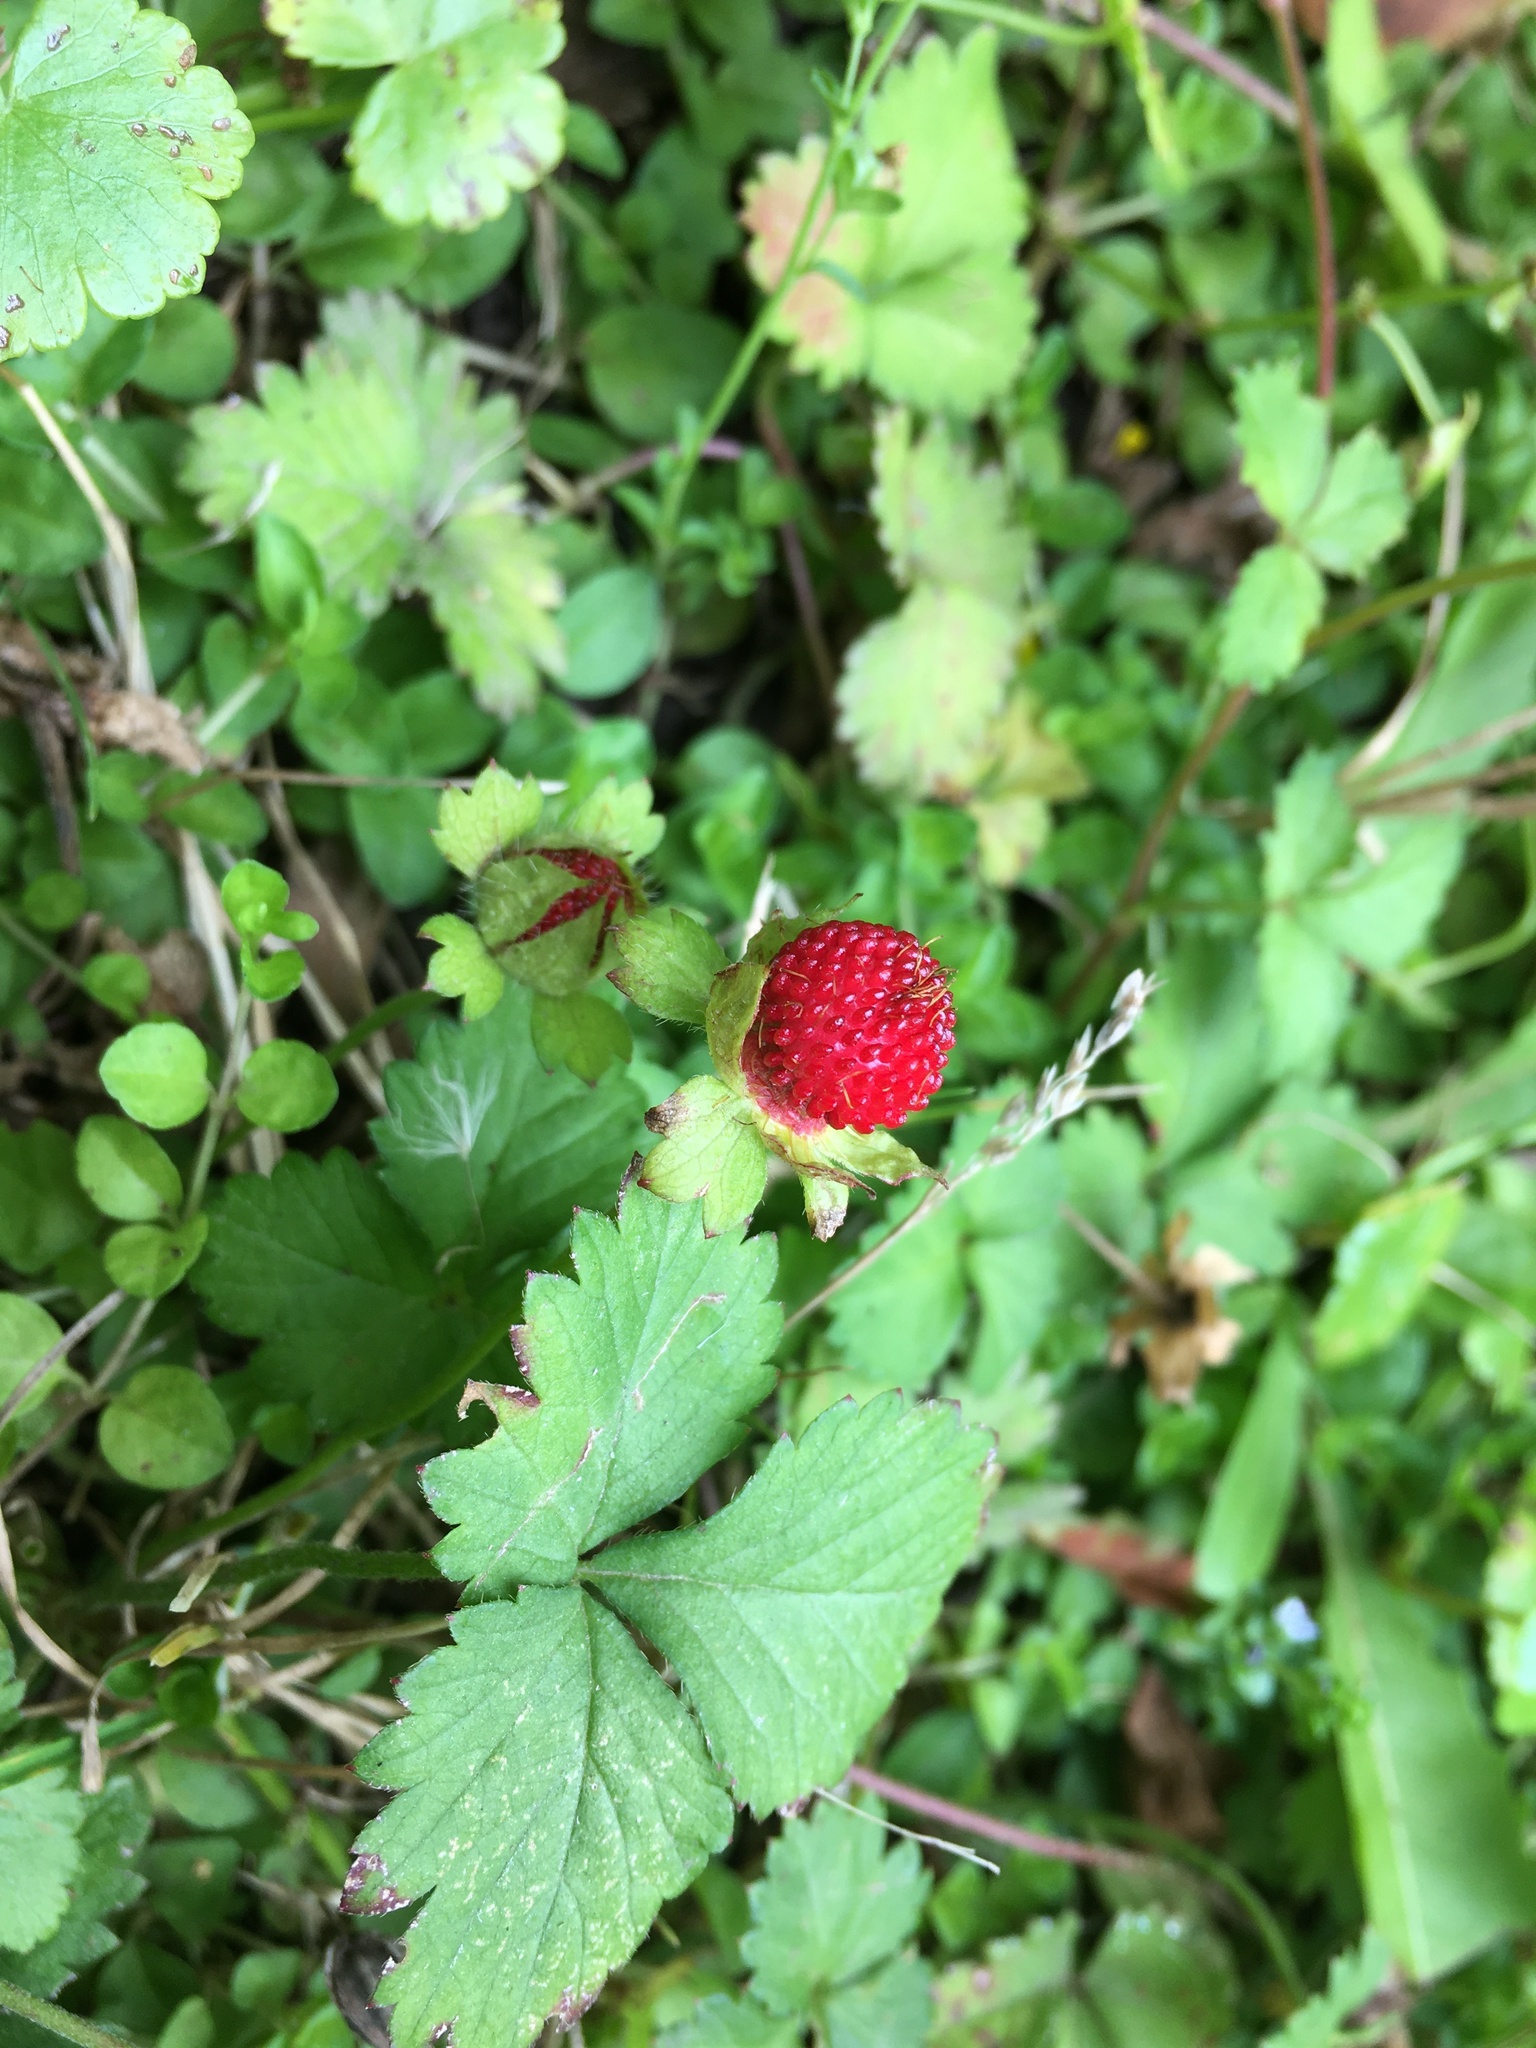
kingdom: Plantae
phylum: Tracheophyta
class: Magnoliopsida
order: Rosales
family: Rosaceae
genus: Potentilla
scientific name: Potentilla indica
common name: Yellow-flowered strawberry
